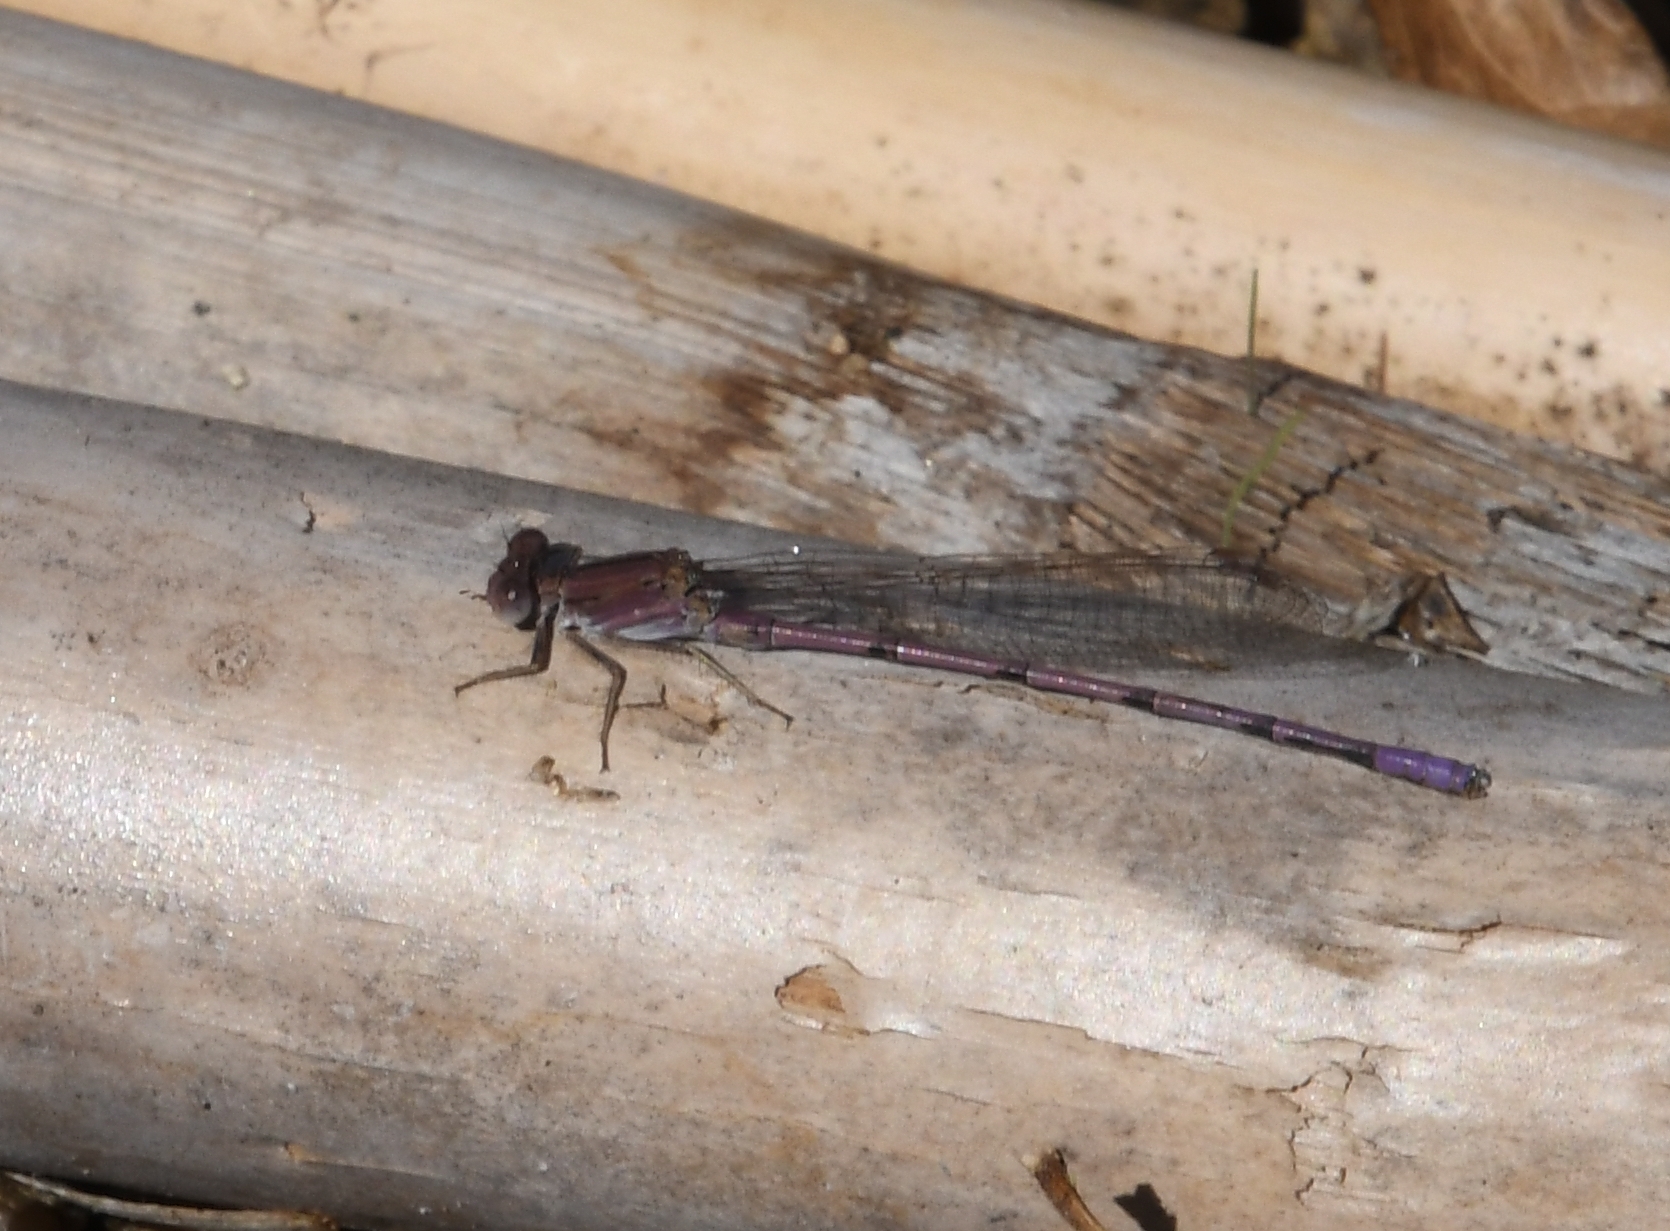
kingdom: Animalia
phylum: Arthropoda
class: Insecta
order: Odonata
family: Coenagrionidae
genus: Argia
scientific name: Argia pallens
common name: Amethyst dancer
